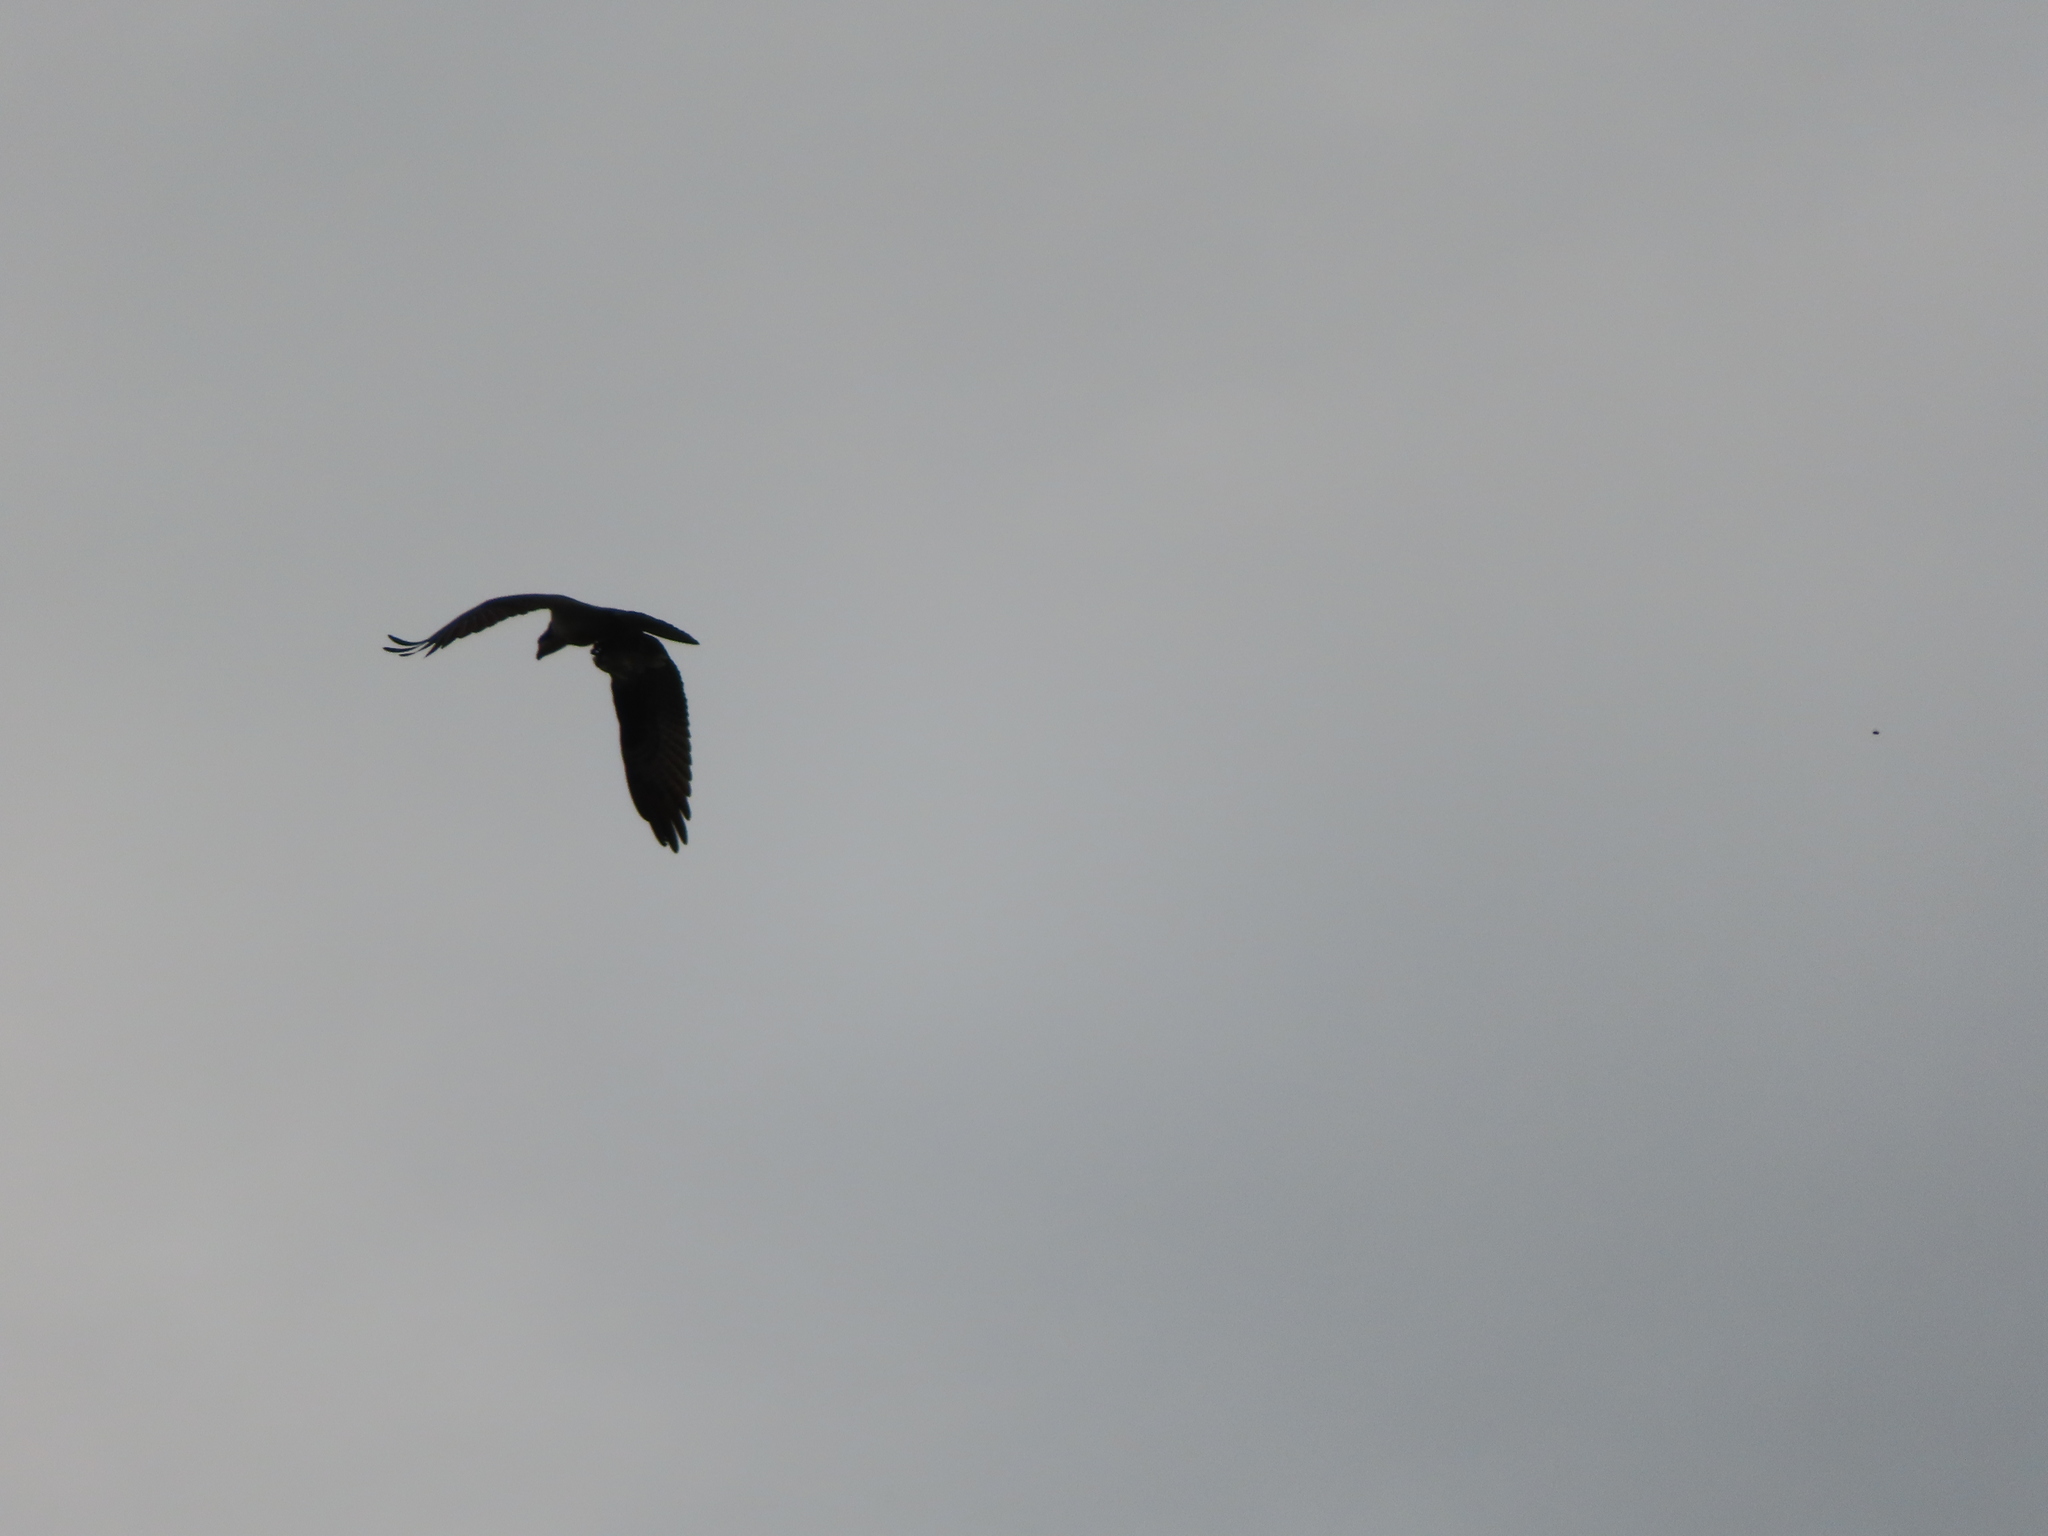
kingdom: Animalia
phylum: Chordata
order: Cypriniformes
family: Cyprinidae
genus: Cyprinus
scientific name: Cyprinus carpio
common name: Common carp
